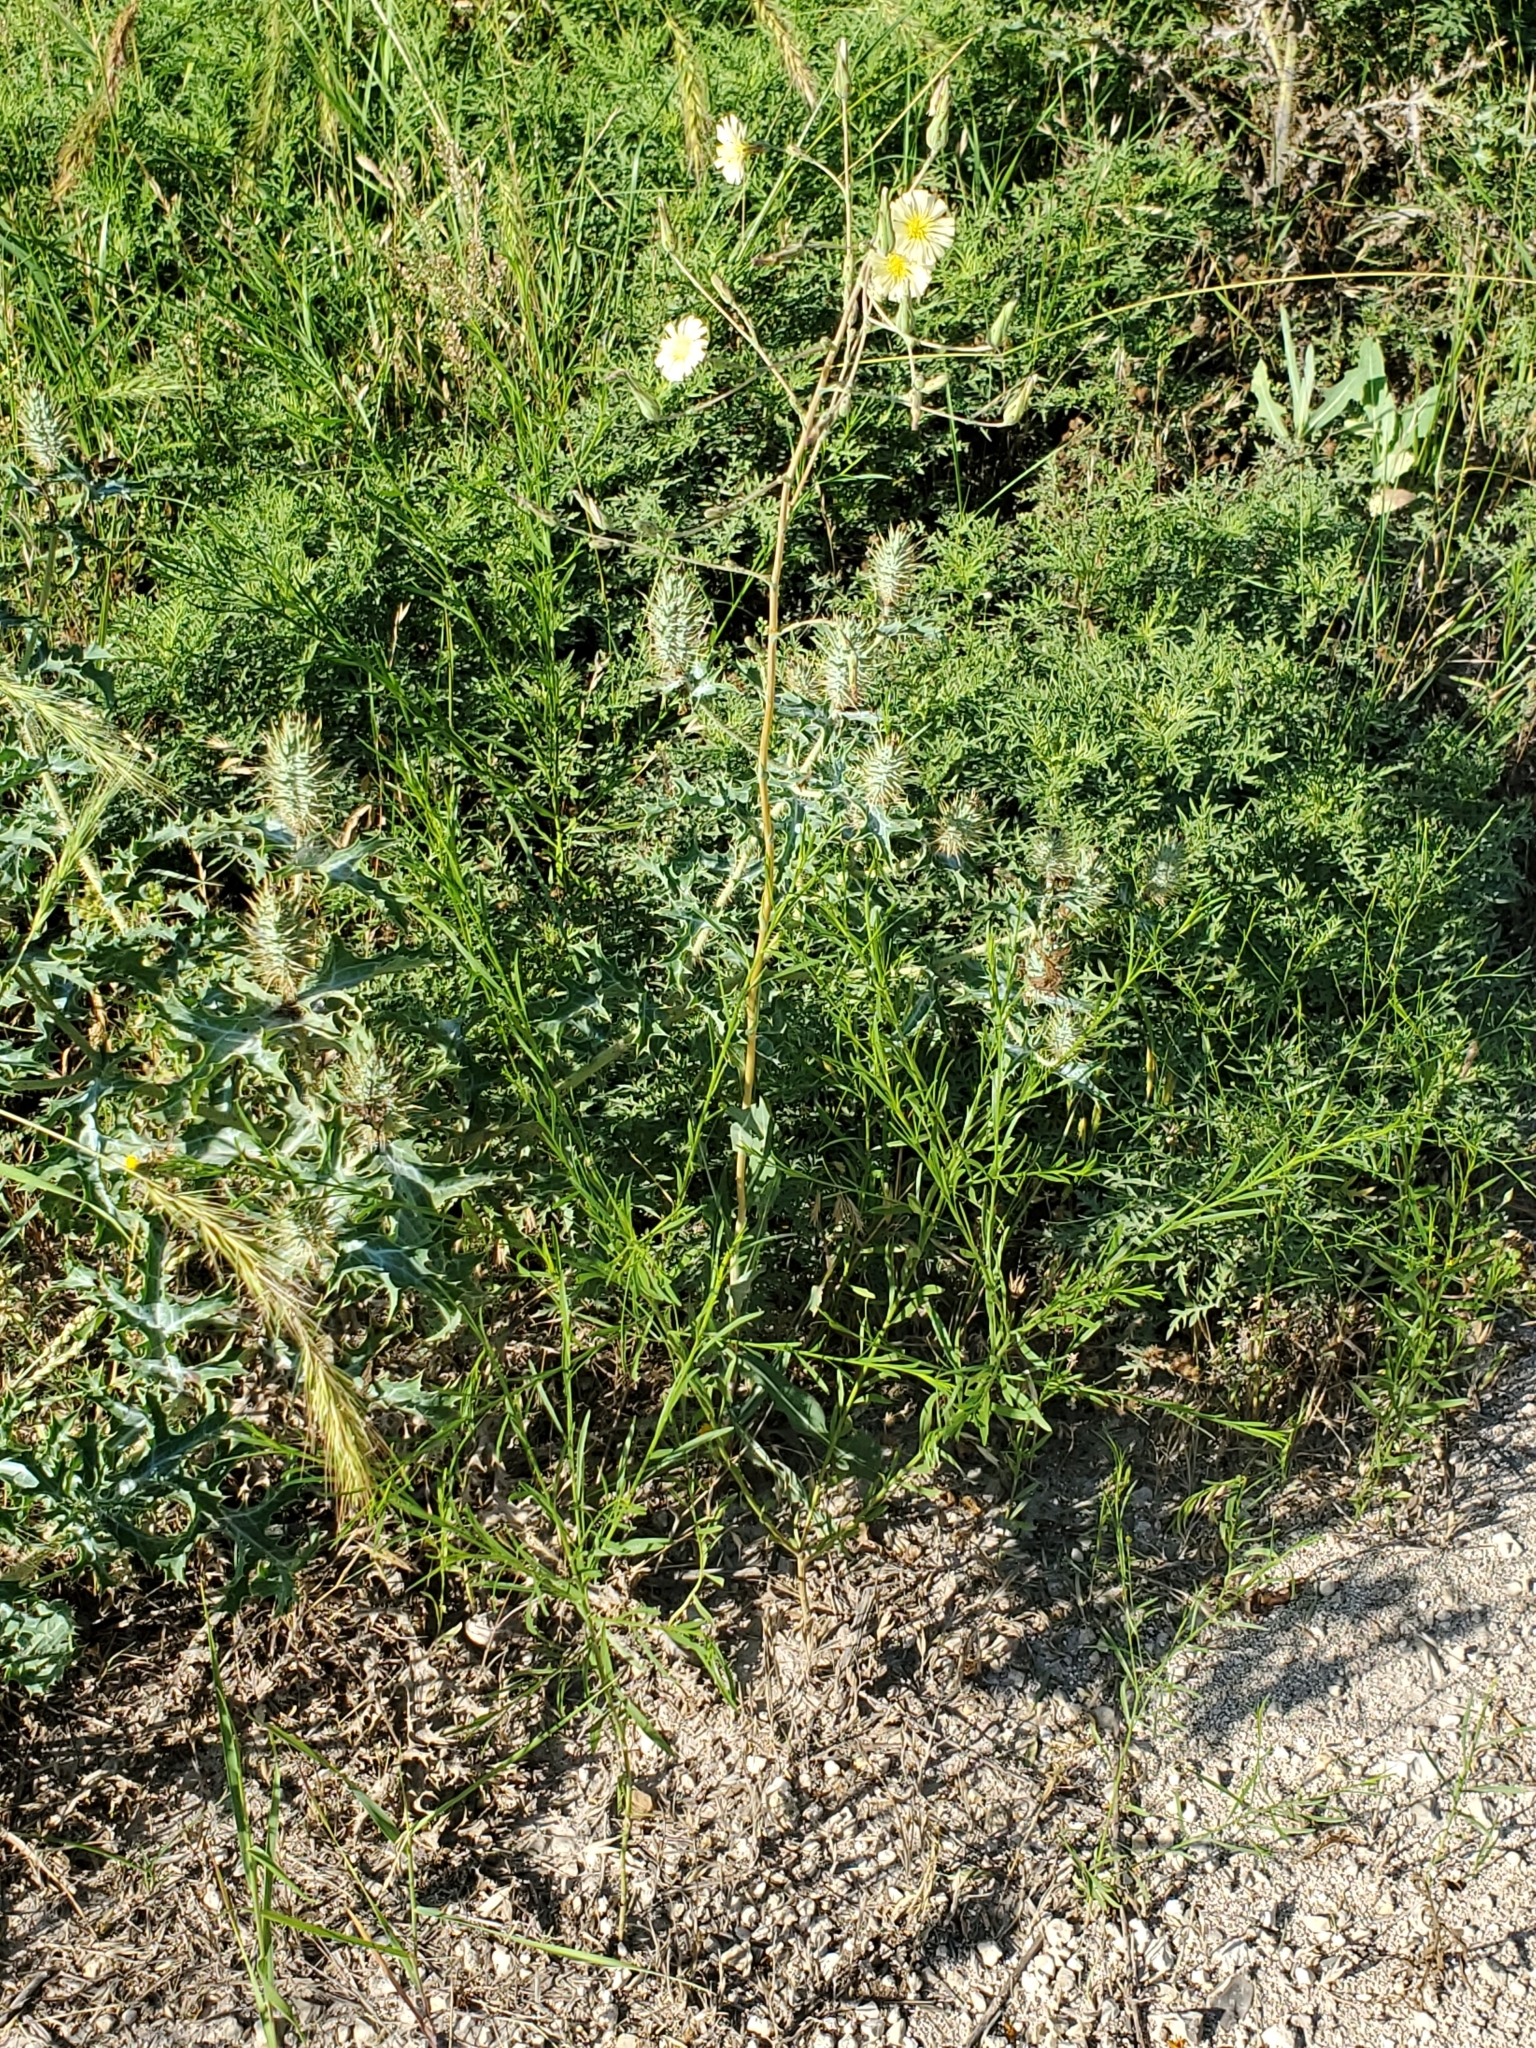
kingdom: Plantae
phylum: Tracheophyta
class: Magnoliopsida
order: Asterales
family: Asteraceae
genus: Lactuca
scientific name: Lactuca serriola
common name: Prickly lettuce
